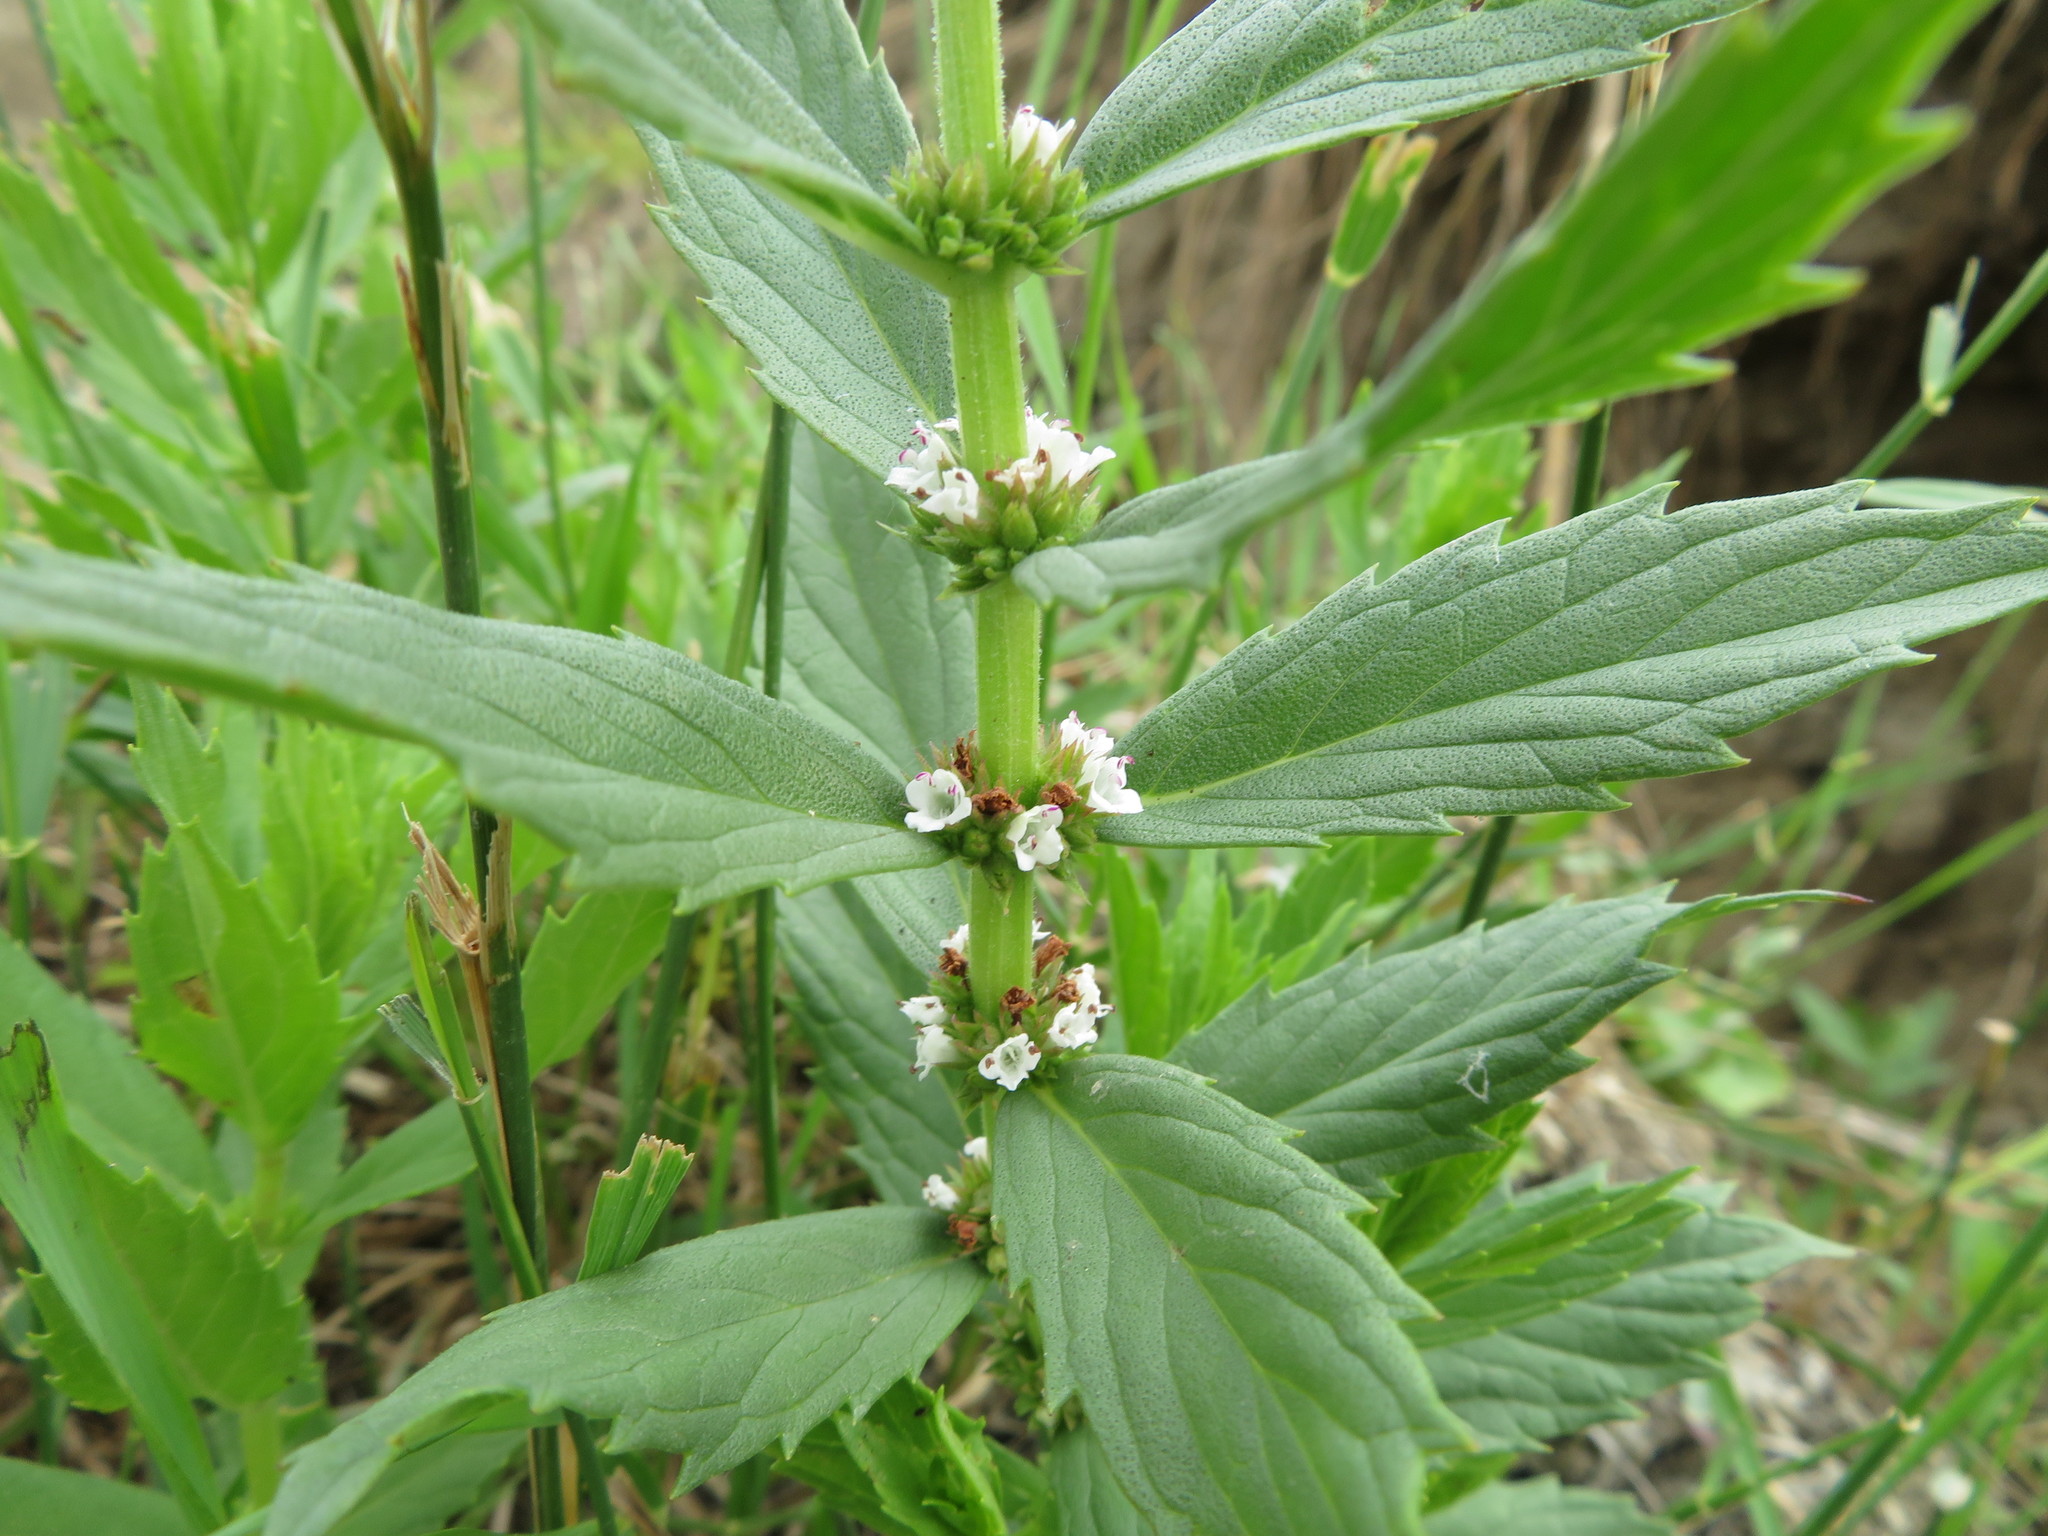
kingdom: Plantae
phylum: Tracheophyta
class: Magnoliopsida
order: Lamiales
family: Lamiaceae
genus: Lycopus
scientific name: Lycopus asper
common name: Rough water-horehound
